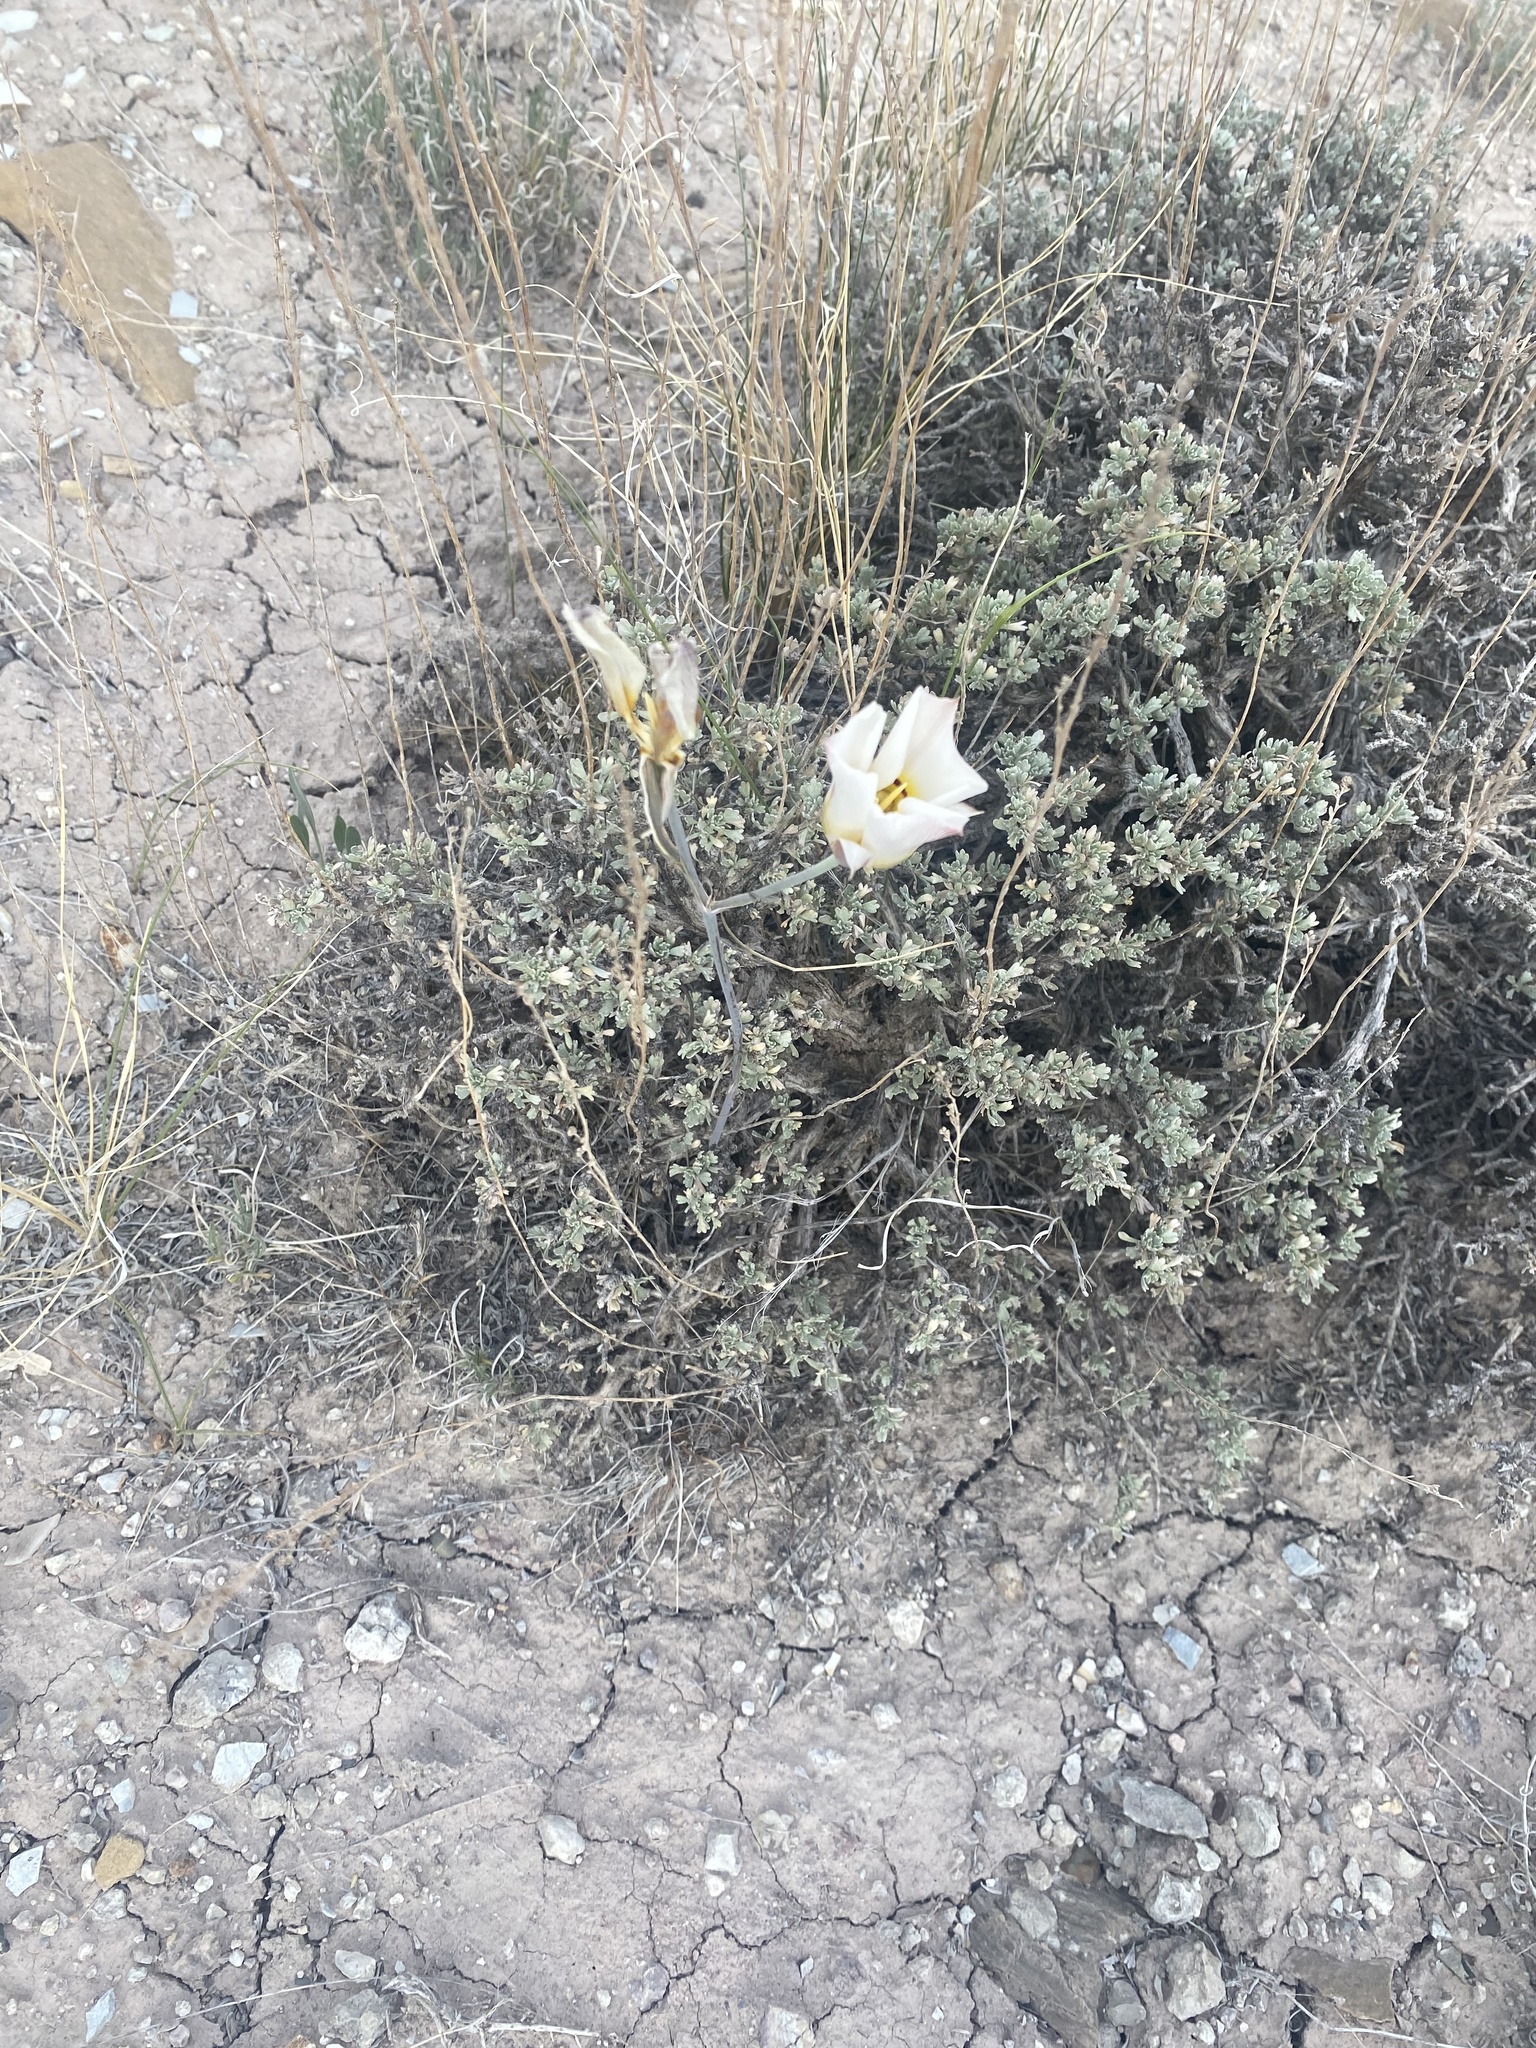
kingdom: Plantae
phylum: Tracheophyta
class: Liliopsida
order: Liliales
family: Liliaceae
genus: Calochortus
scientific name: Calochortus nuttallii
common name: Sego-lily
